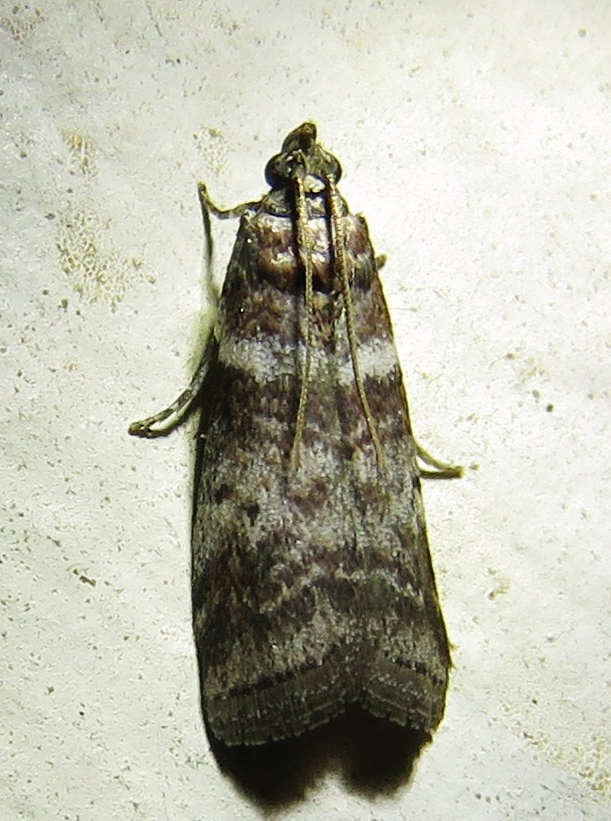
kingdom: Animalia
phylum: Arthropoda
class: Insecta
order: Lepidoptera
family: Pyralidae
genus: Sciota
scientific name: Sciota uvinella
